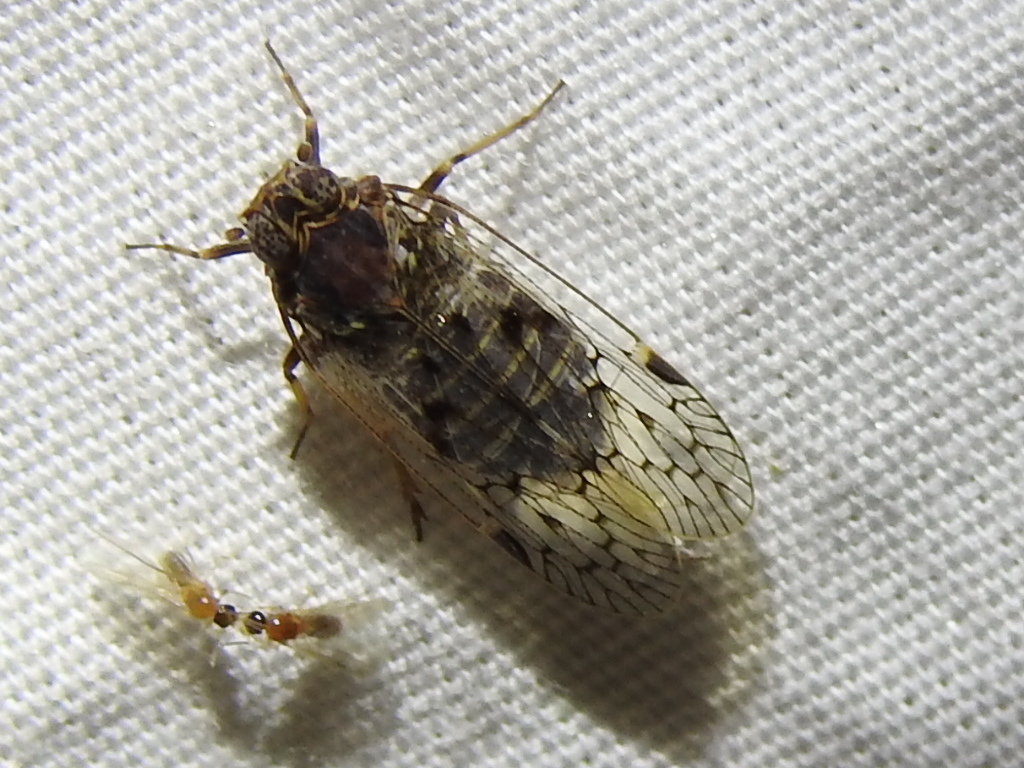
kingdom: Animalia
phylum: Arthropoda
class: Insecta
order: Hemiptera
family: Cixiidae
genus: Melanoliarus
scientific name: Melanoliarus aridus
